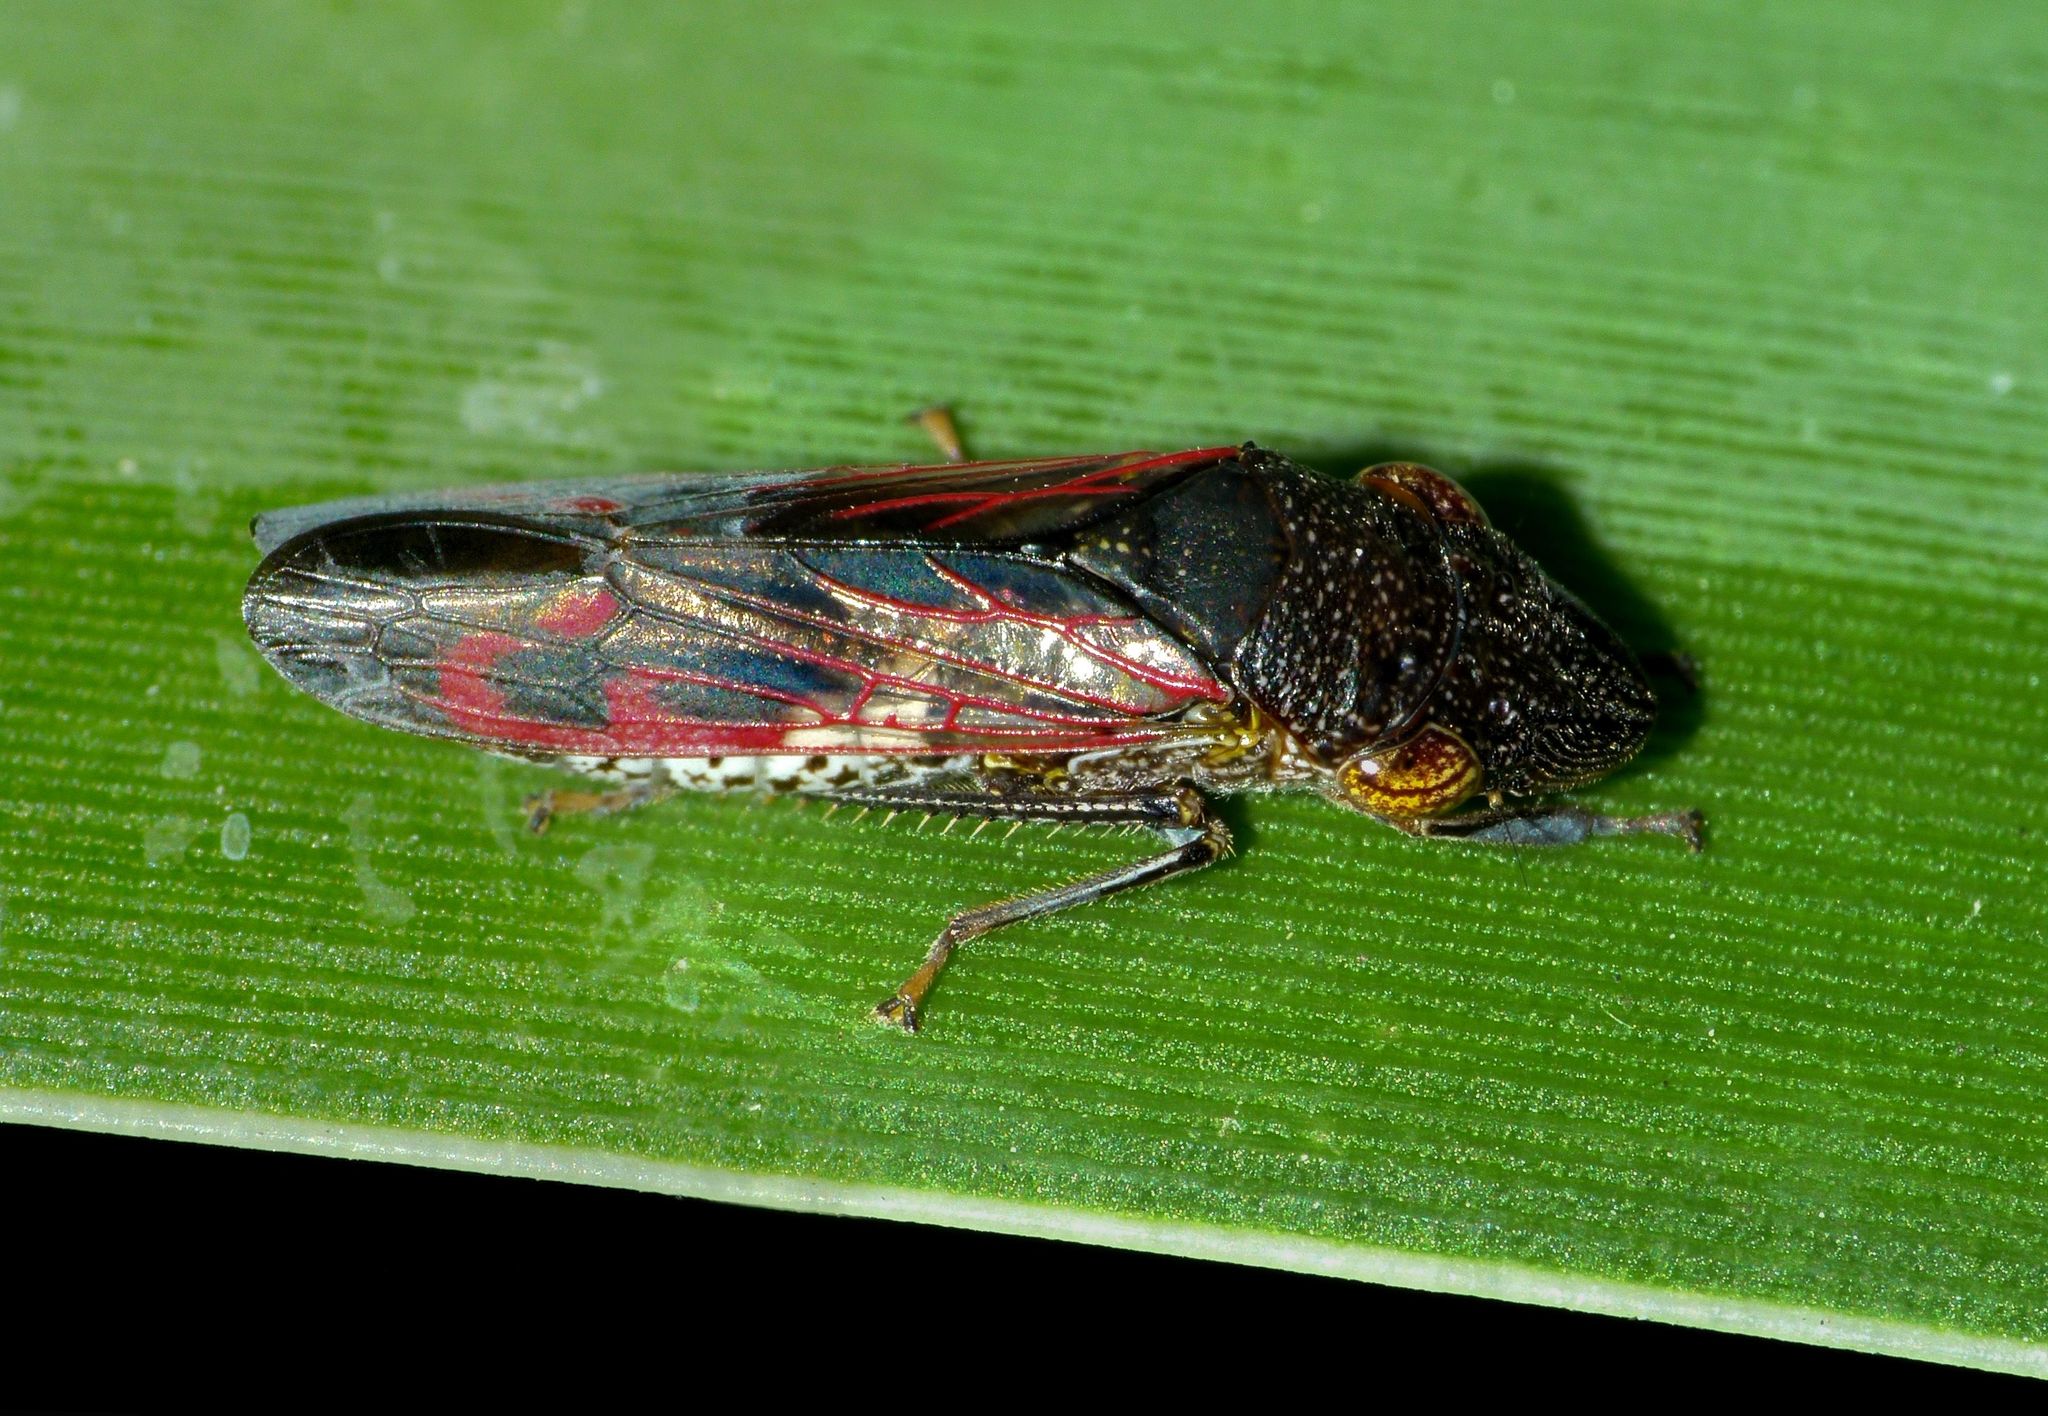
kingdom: Animalia
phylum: Arthropoda
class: Insecta
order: Hemiptera
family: Cicadellidae
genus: Homalodisca
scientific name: Homalodisca vitripennis
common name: Glassy-winged sharpshooter
